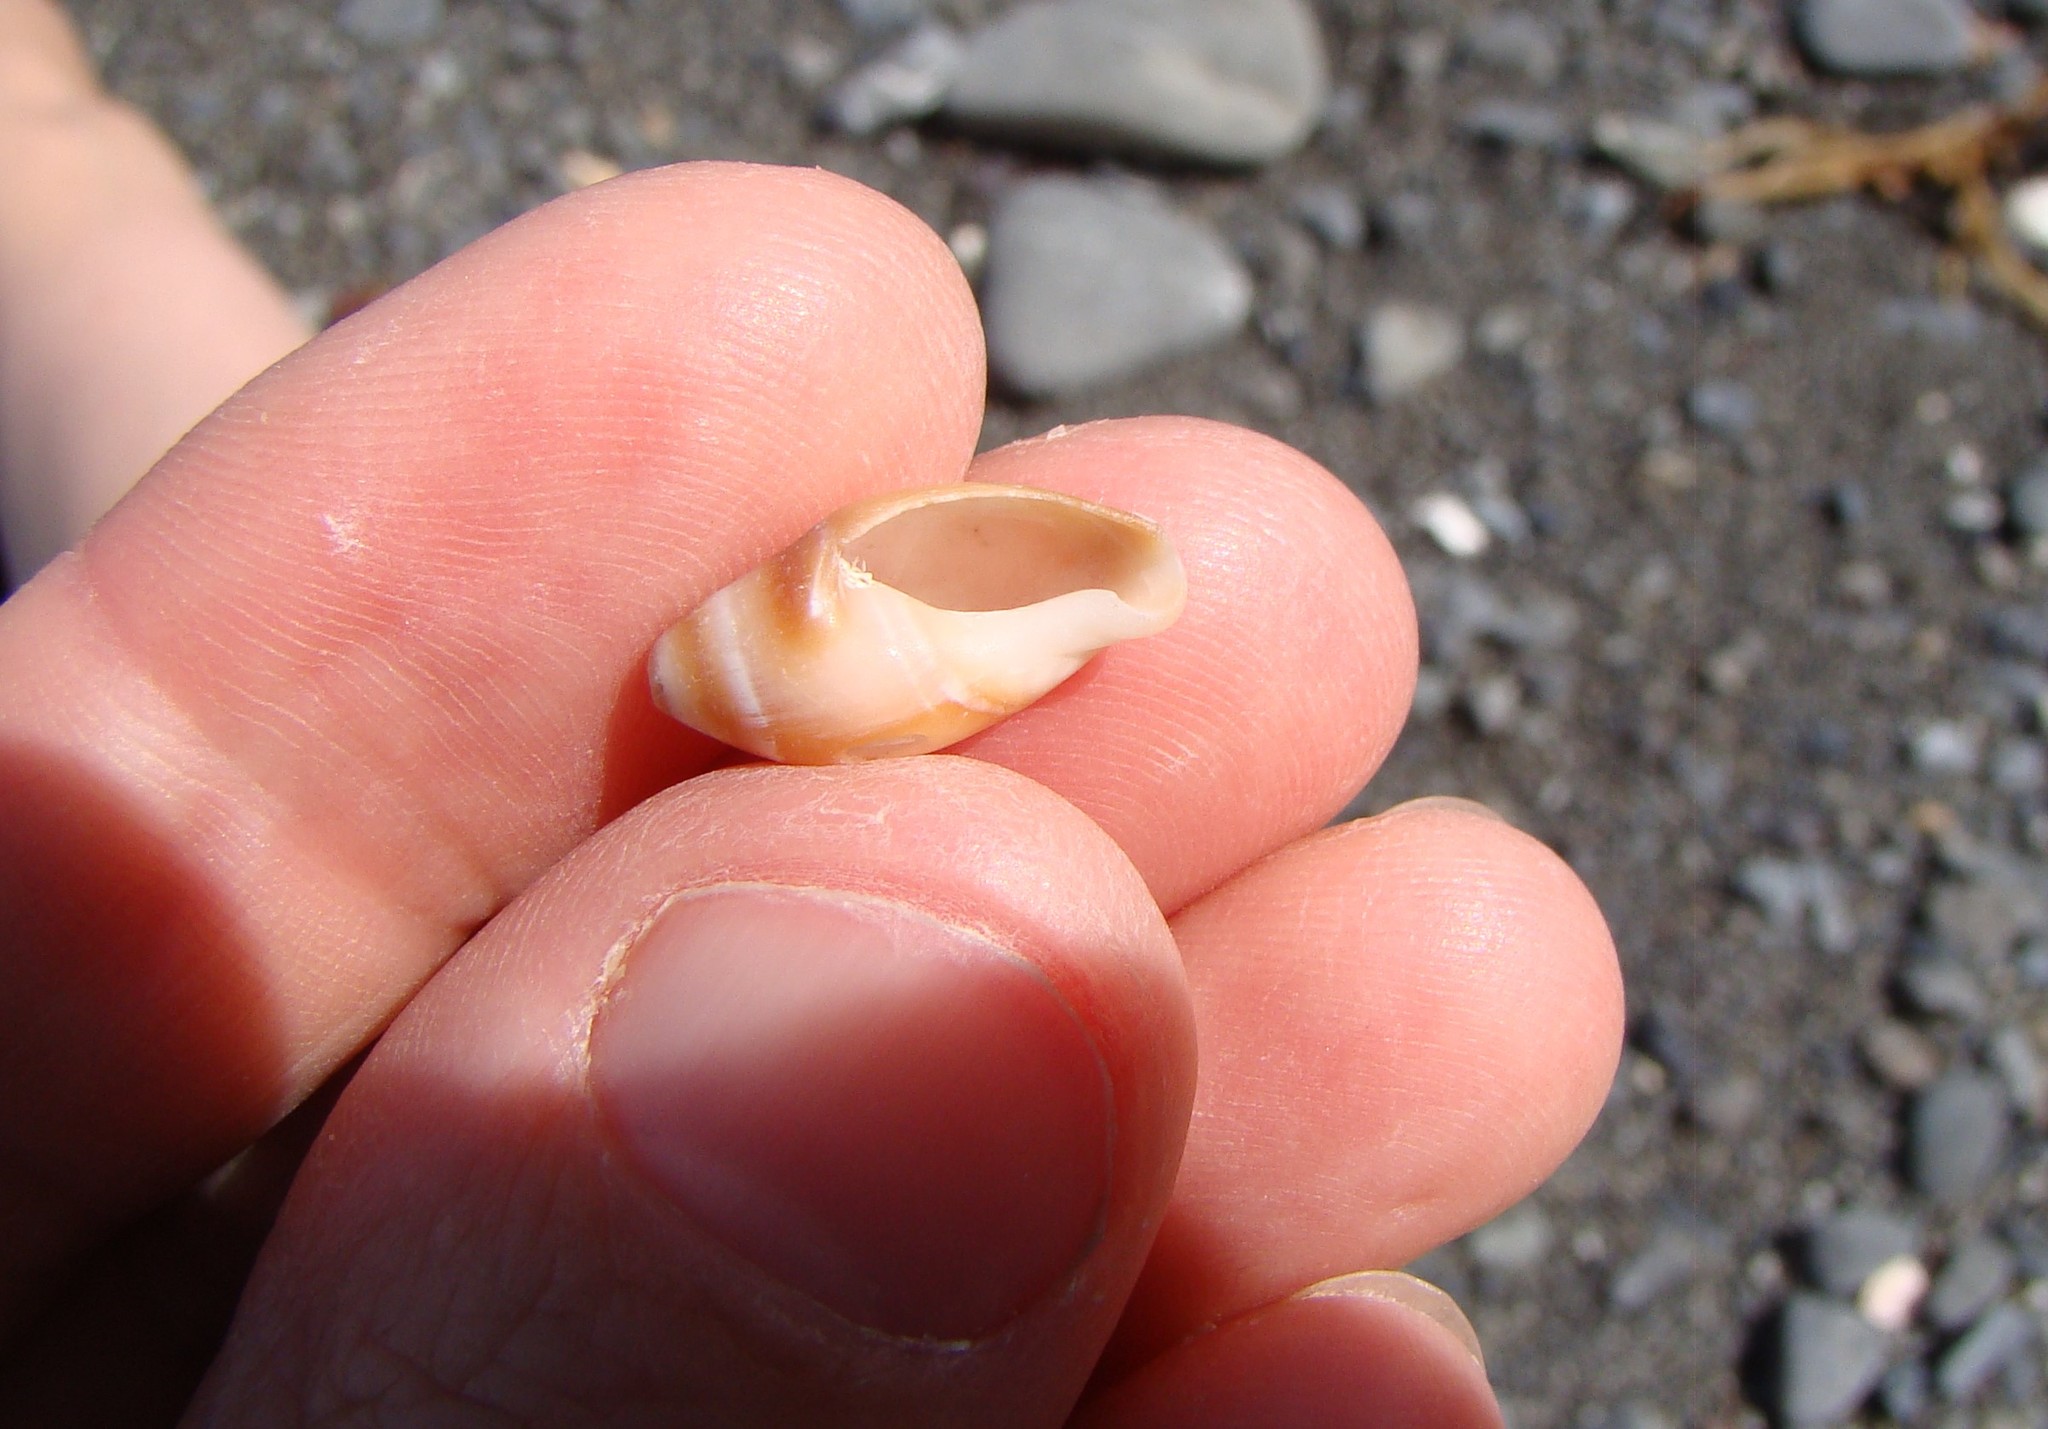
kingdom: Animalia
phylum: Mollusca
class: Gastropoda
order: Neogastropoda
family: Ancillariidae
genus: Amalda
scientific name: Amalda australis
